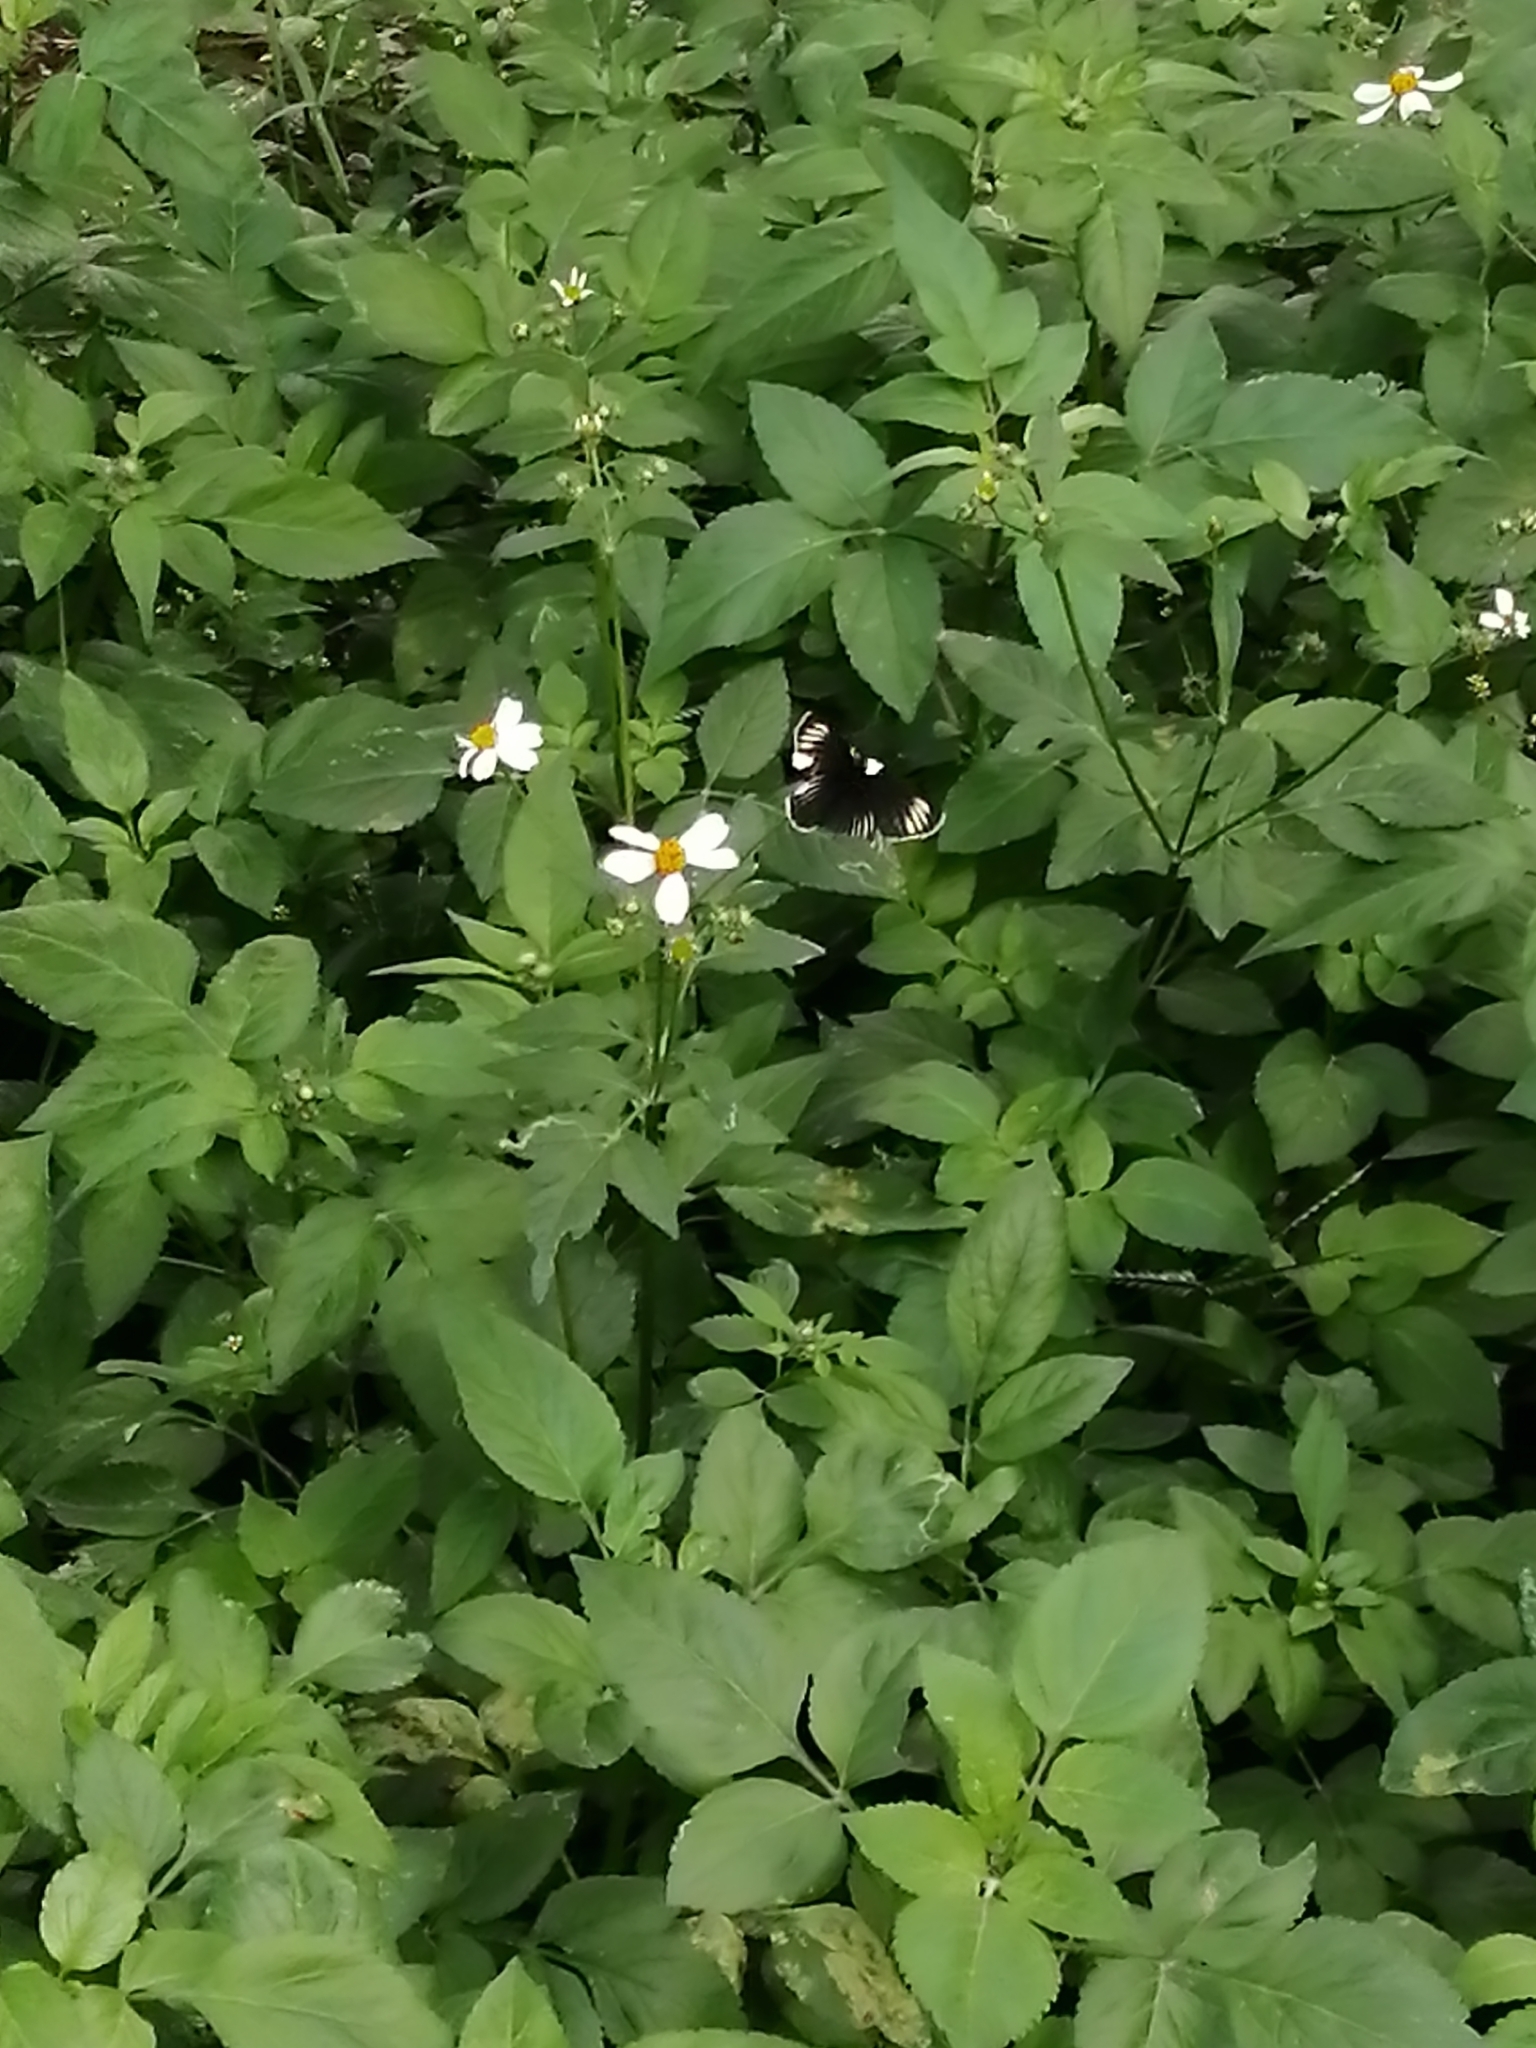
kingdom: Animalia
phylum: Arthropoda
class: Insecta
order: Lepidoptera
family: Nymphalidae
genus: Chlosyne
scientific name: Chlosyne ehrenbergii
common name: White-rayed patch
